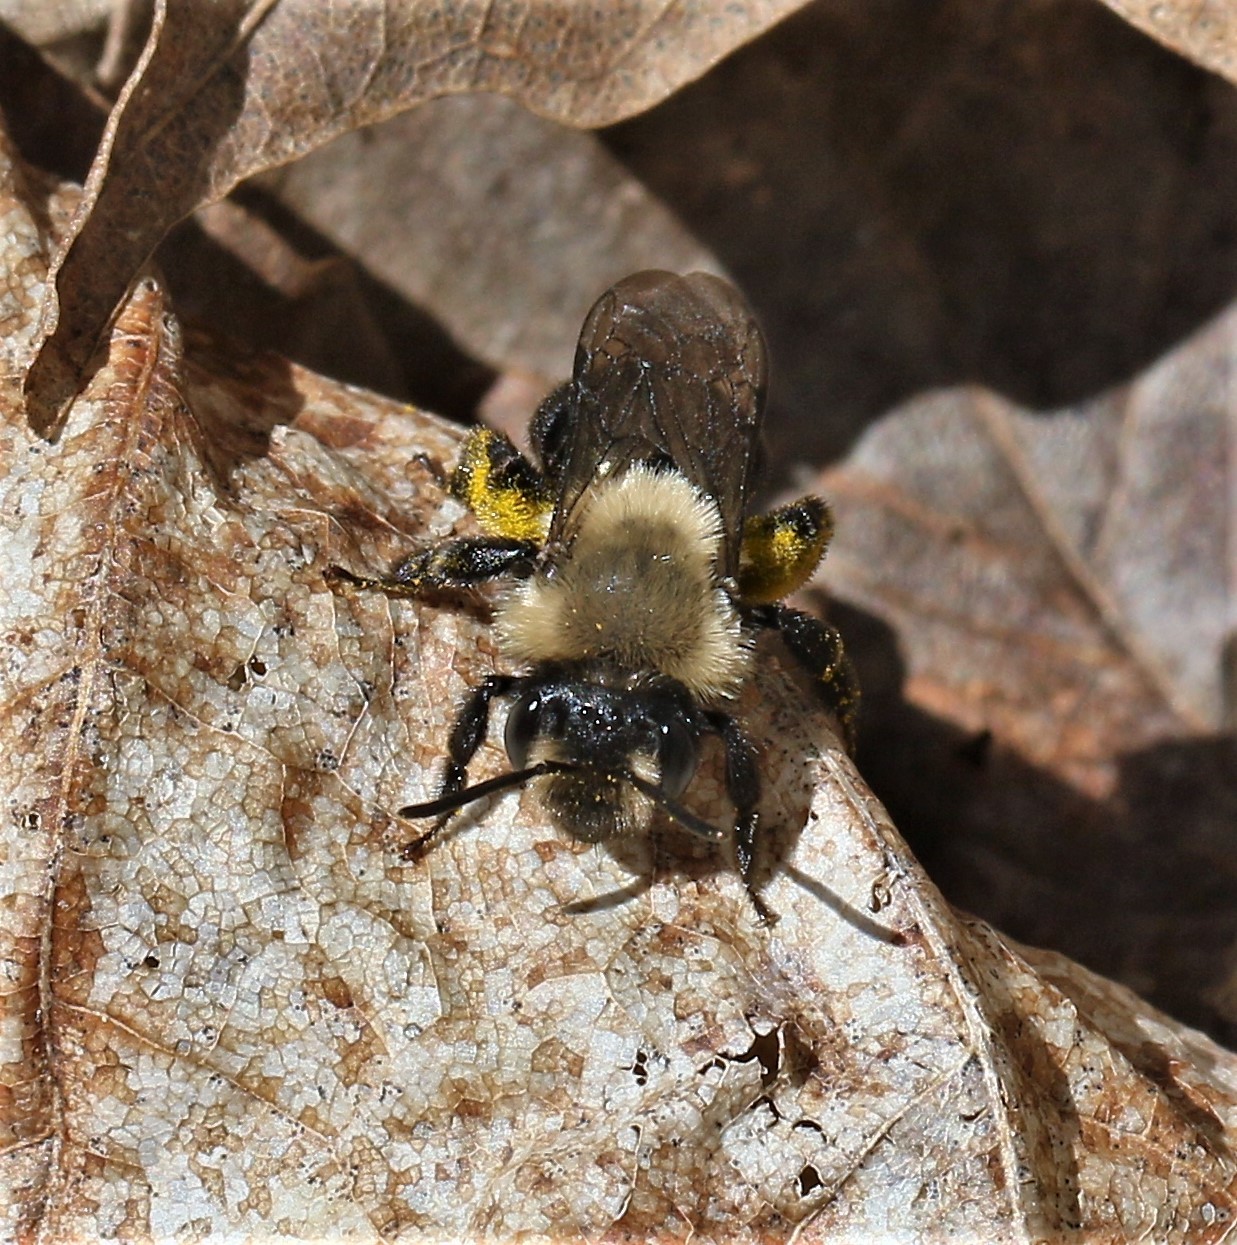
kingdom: Animalia
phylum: Arthropoda
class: Insecta
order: Hymenoptera
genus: Melandrena
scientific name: Melandrena
